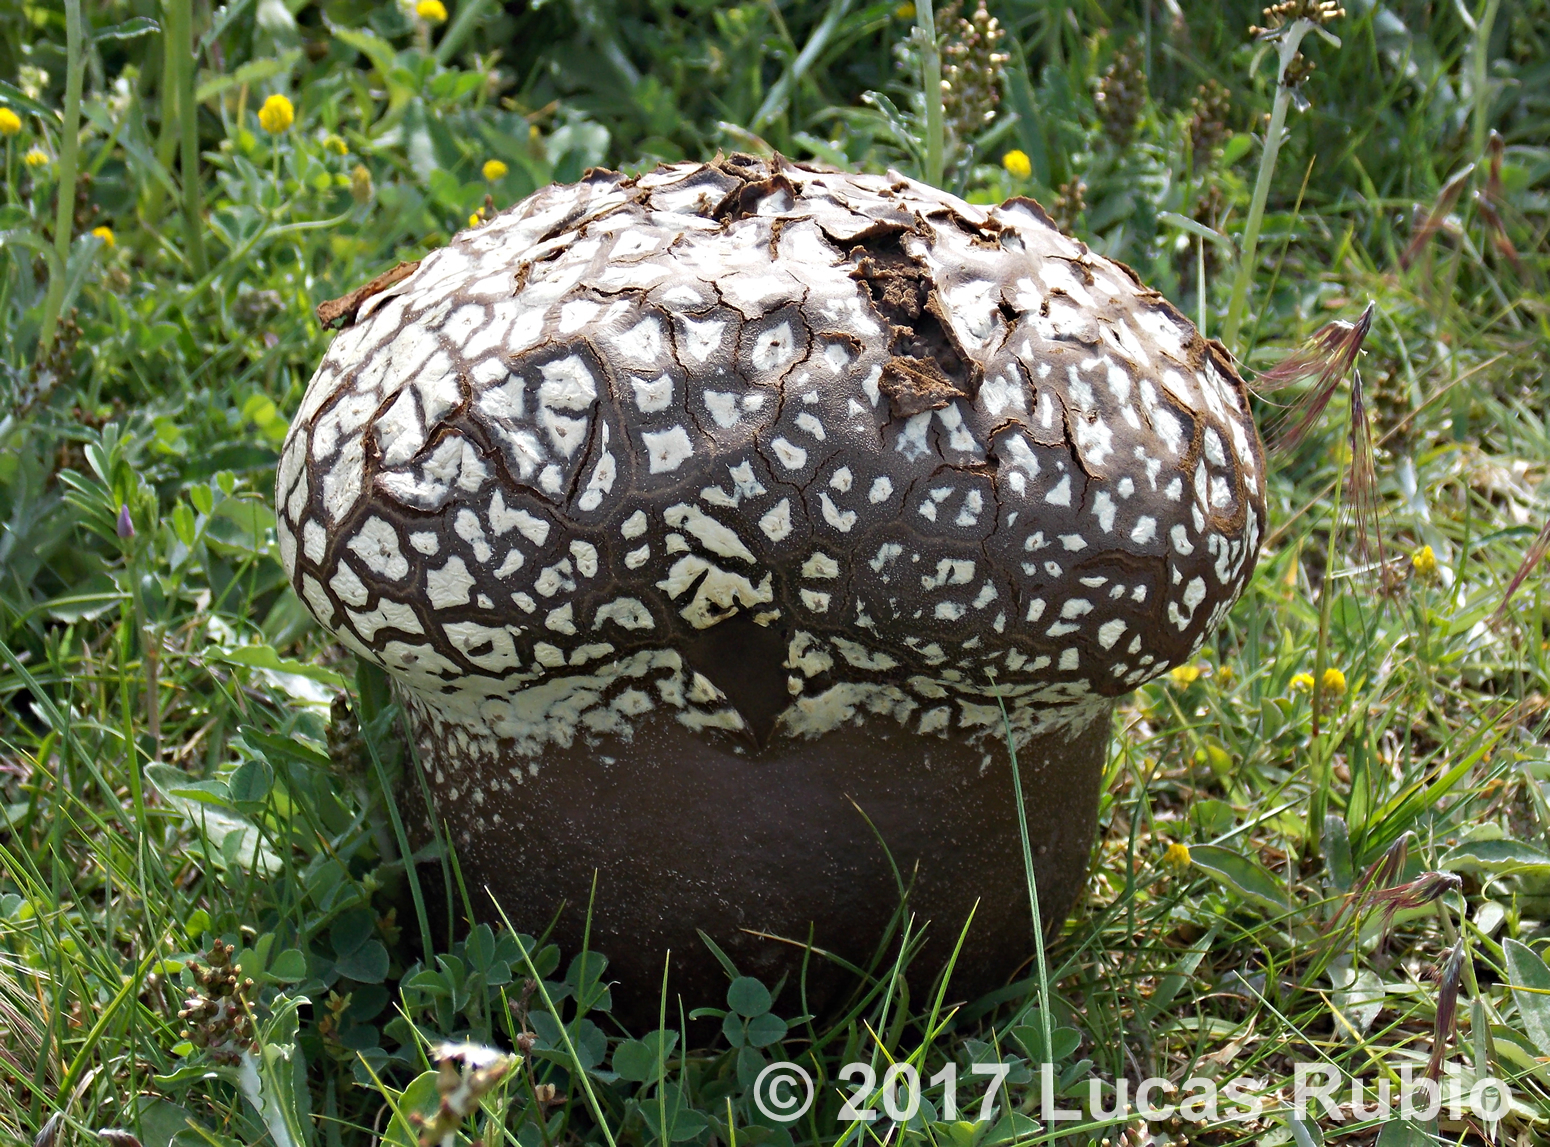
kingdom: Fungi
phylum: Basidiomycota
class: Agaricomycetes
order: Agaricales
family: Lycoperdaceae
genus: Calvatia
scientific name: Calvatia cyathiformis
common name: Purple-spored puffball
